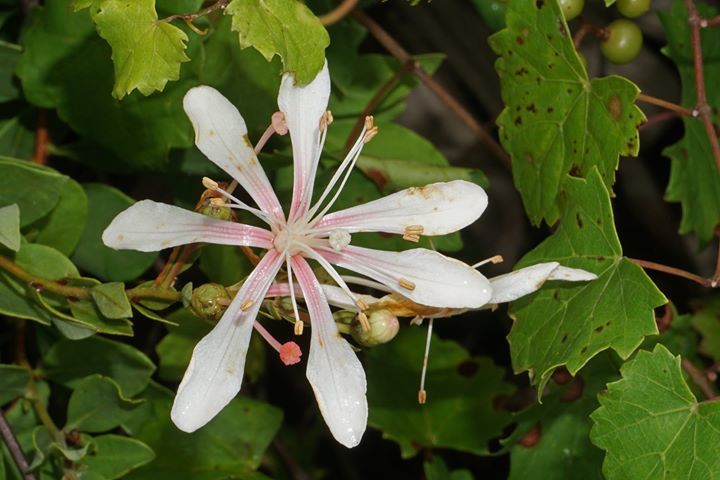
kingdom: Plantae
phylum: Tracheophyta
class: Magnoliopsida
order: Ericales
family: Ericaceae
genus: Bejaria
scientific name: Bejaria racemosa
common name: Tarflower
